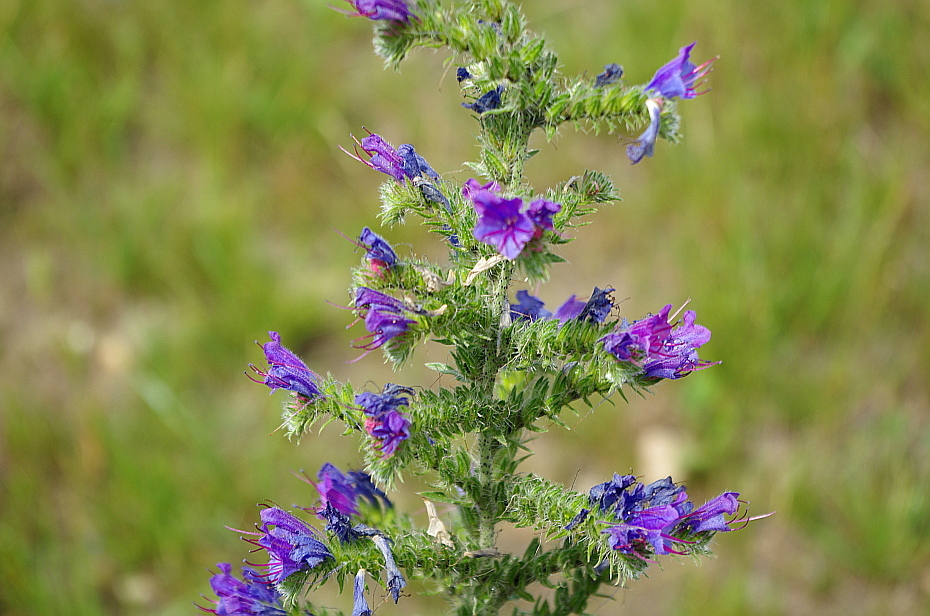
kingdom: Plantae
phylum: Tracheophyta
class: Magnoliopsida
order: Boraginales
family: Boraginaceae
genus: Echium
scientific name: Echium vulgare
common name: Common viper's bugloss
